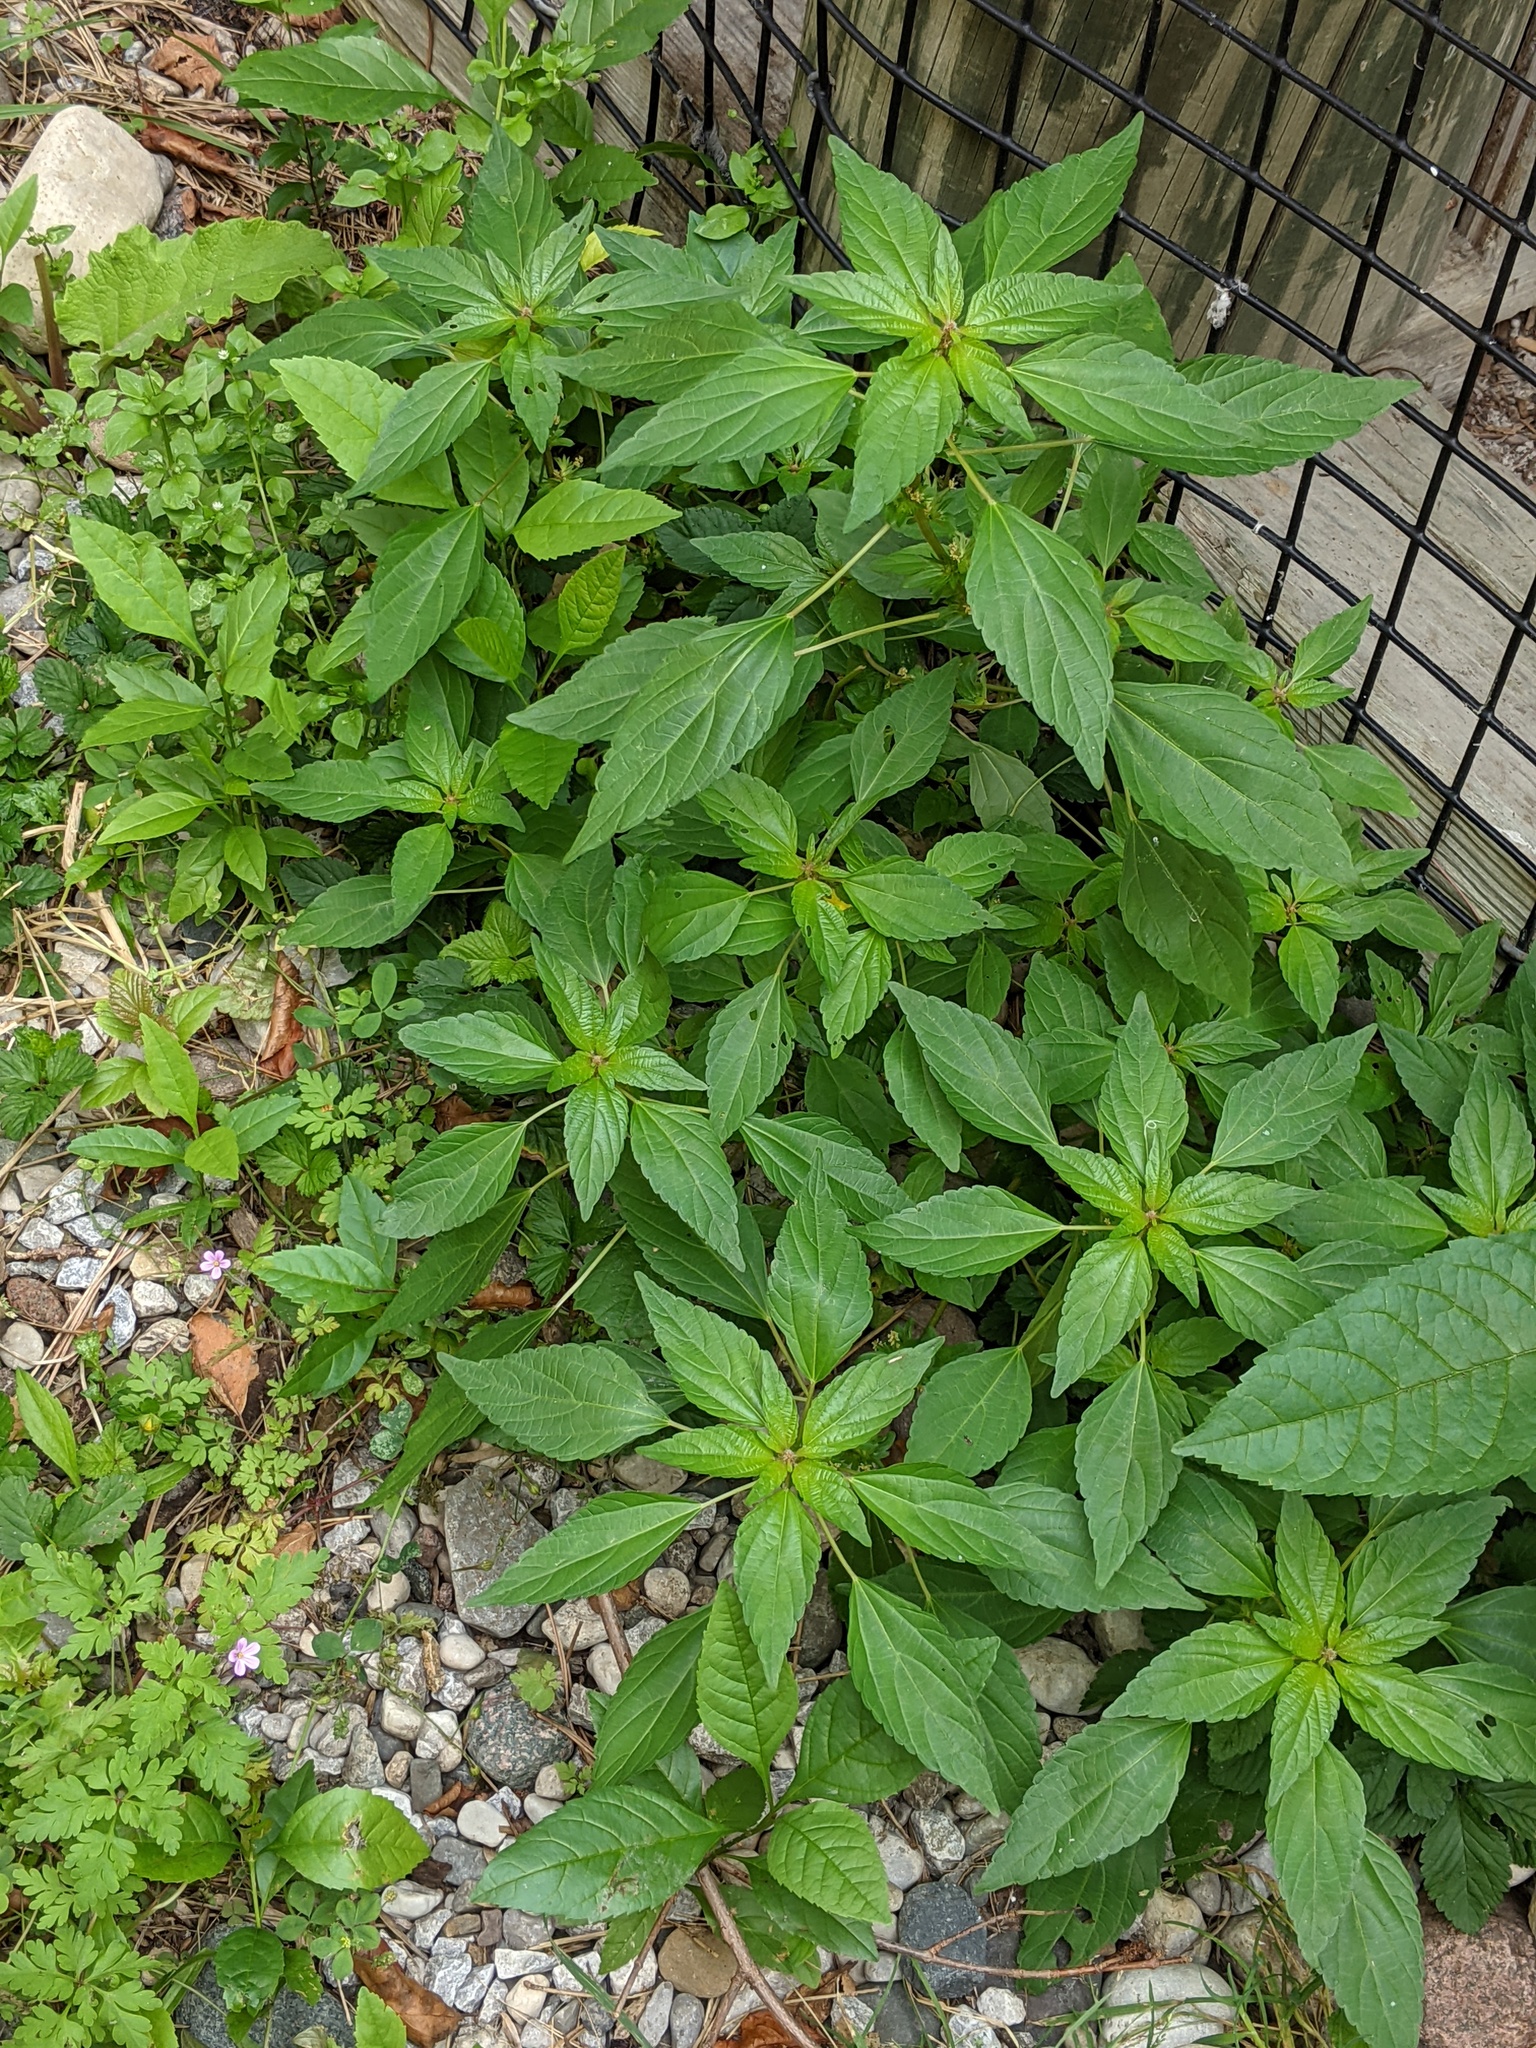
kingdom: Plantae
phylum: Tracheophyta
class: Magnoliopsida
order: Malpighiales
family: Euphorbiaceae
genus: Acalypha
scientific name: Acalypha rhomboidea
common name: Rhombic copperleaf
